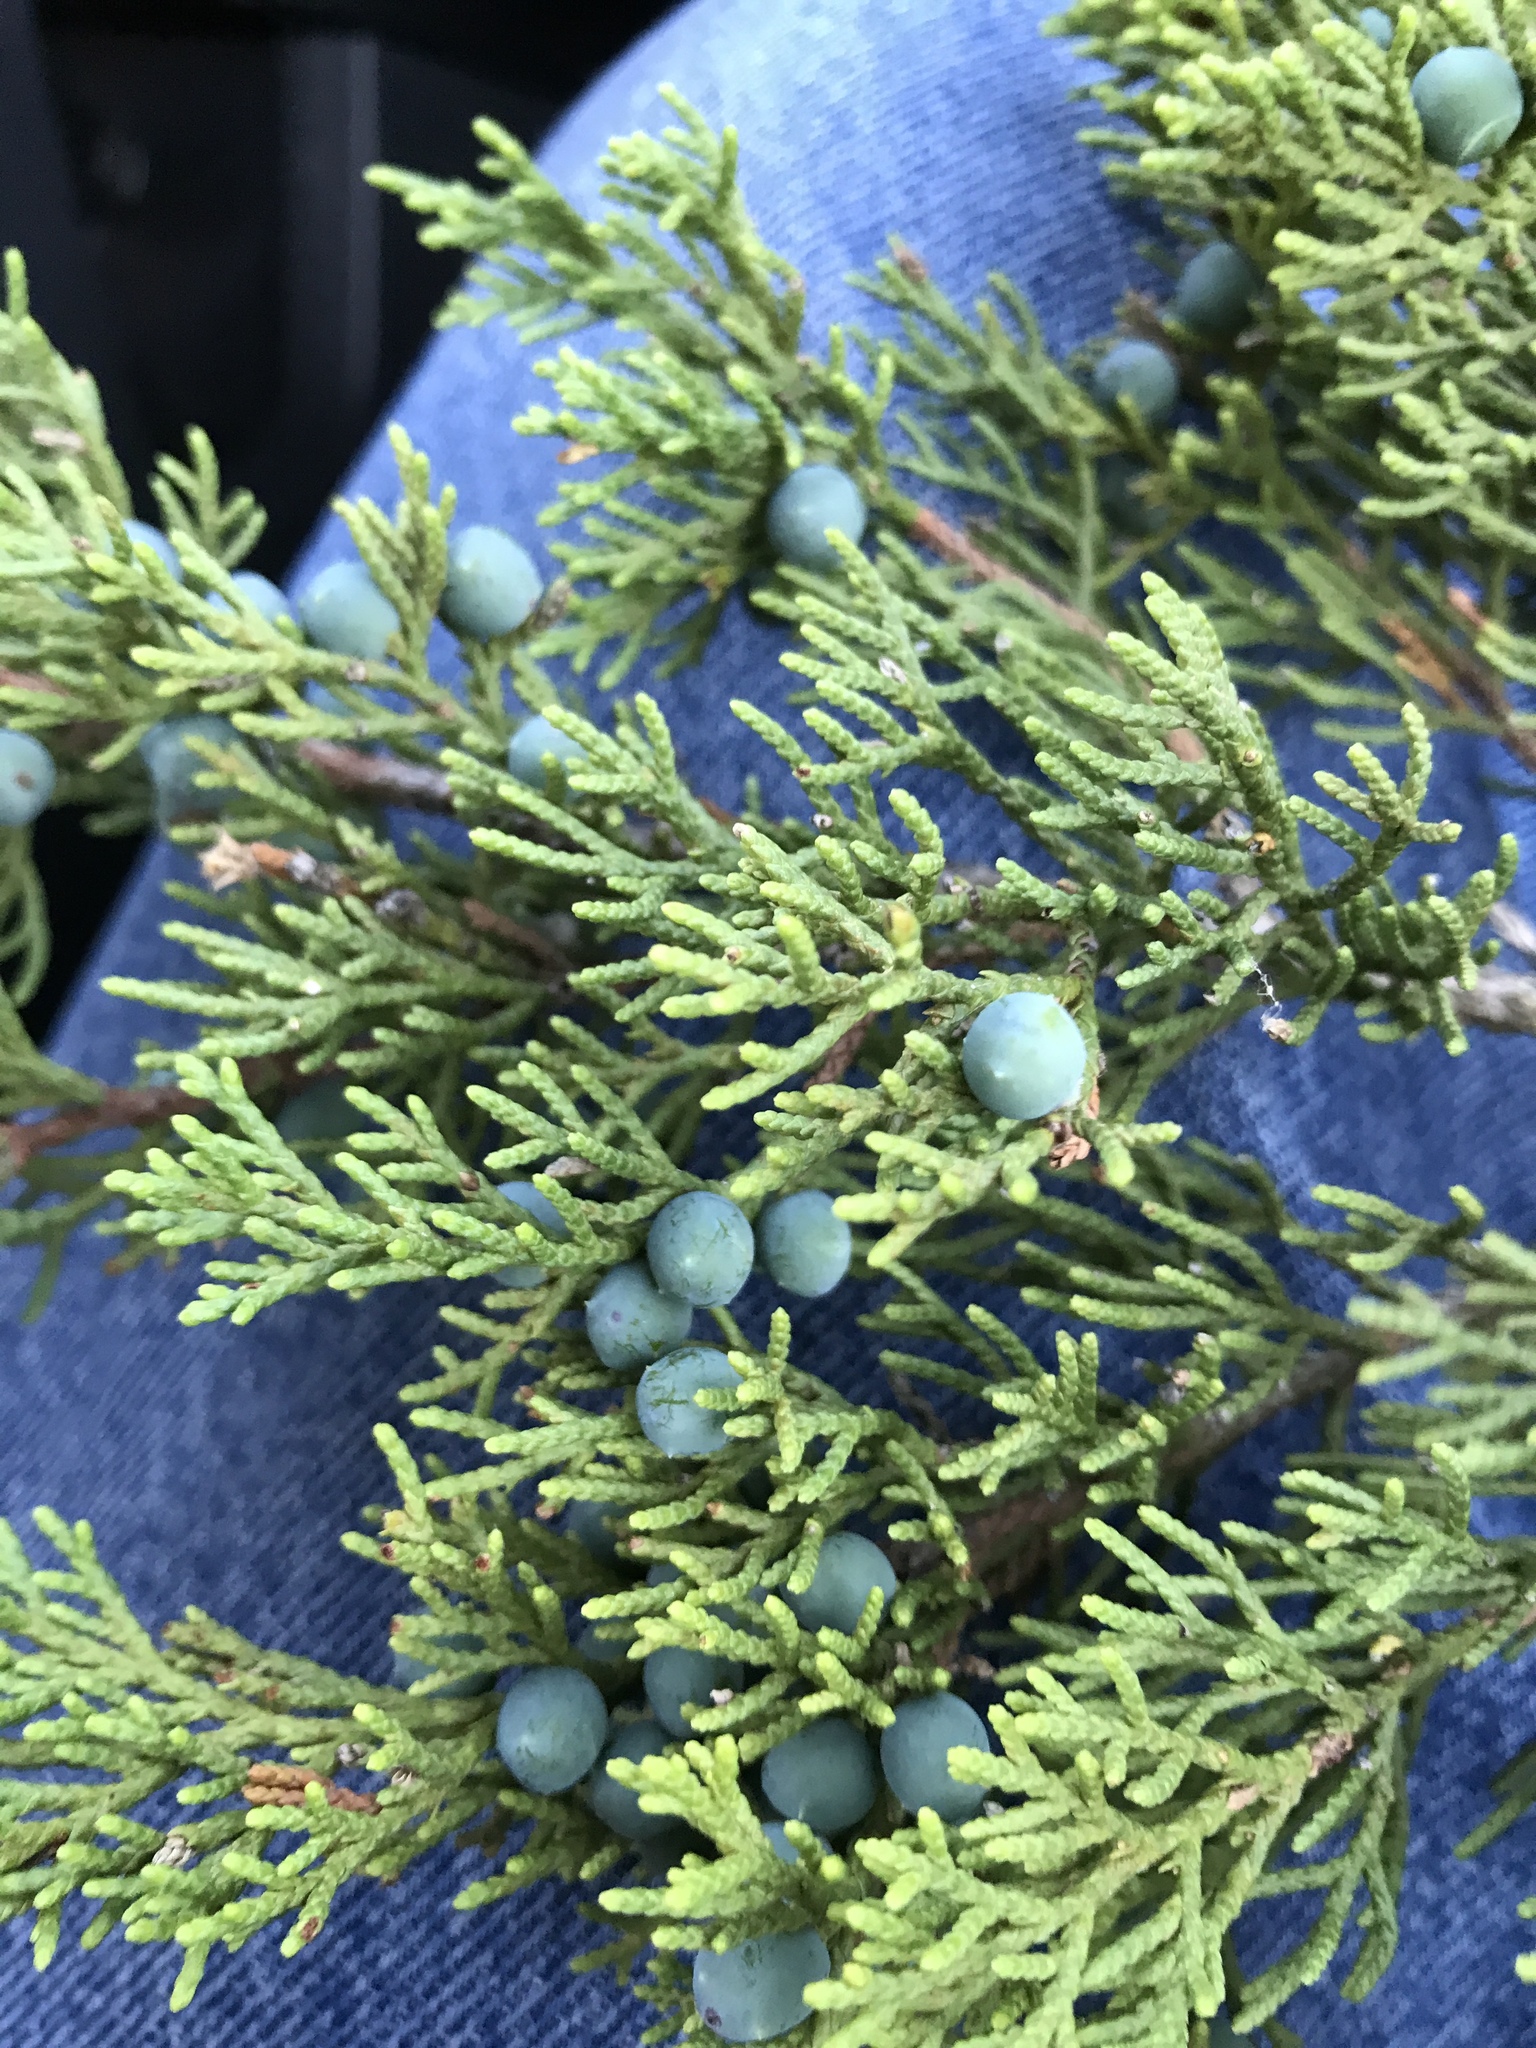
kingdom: Plantae
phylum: Tracheophyta
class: Pinopsida
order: Pinales
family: Cupressaceae
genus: Juniperus
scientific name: Juniperus ashei
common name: Mexican juniper
